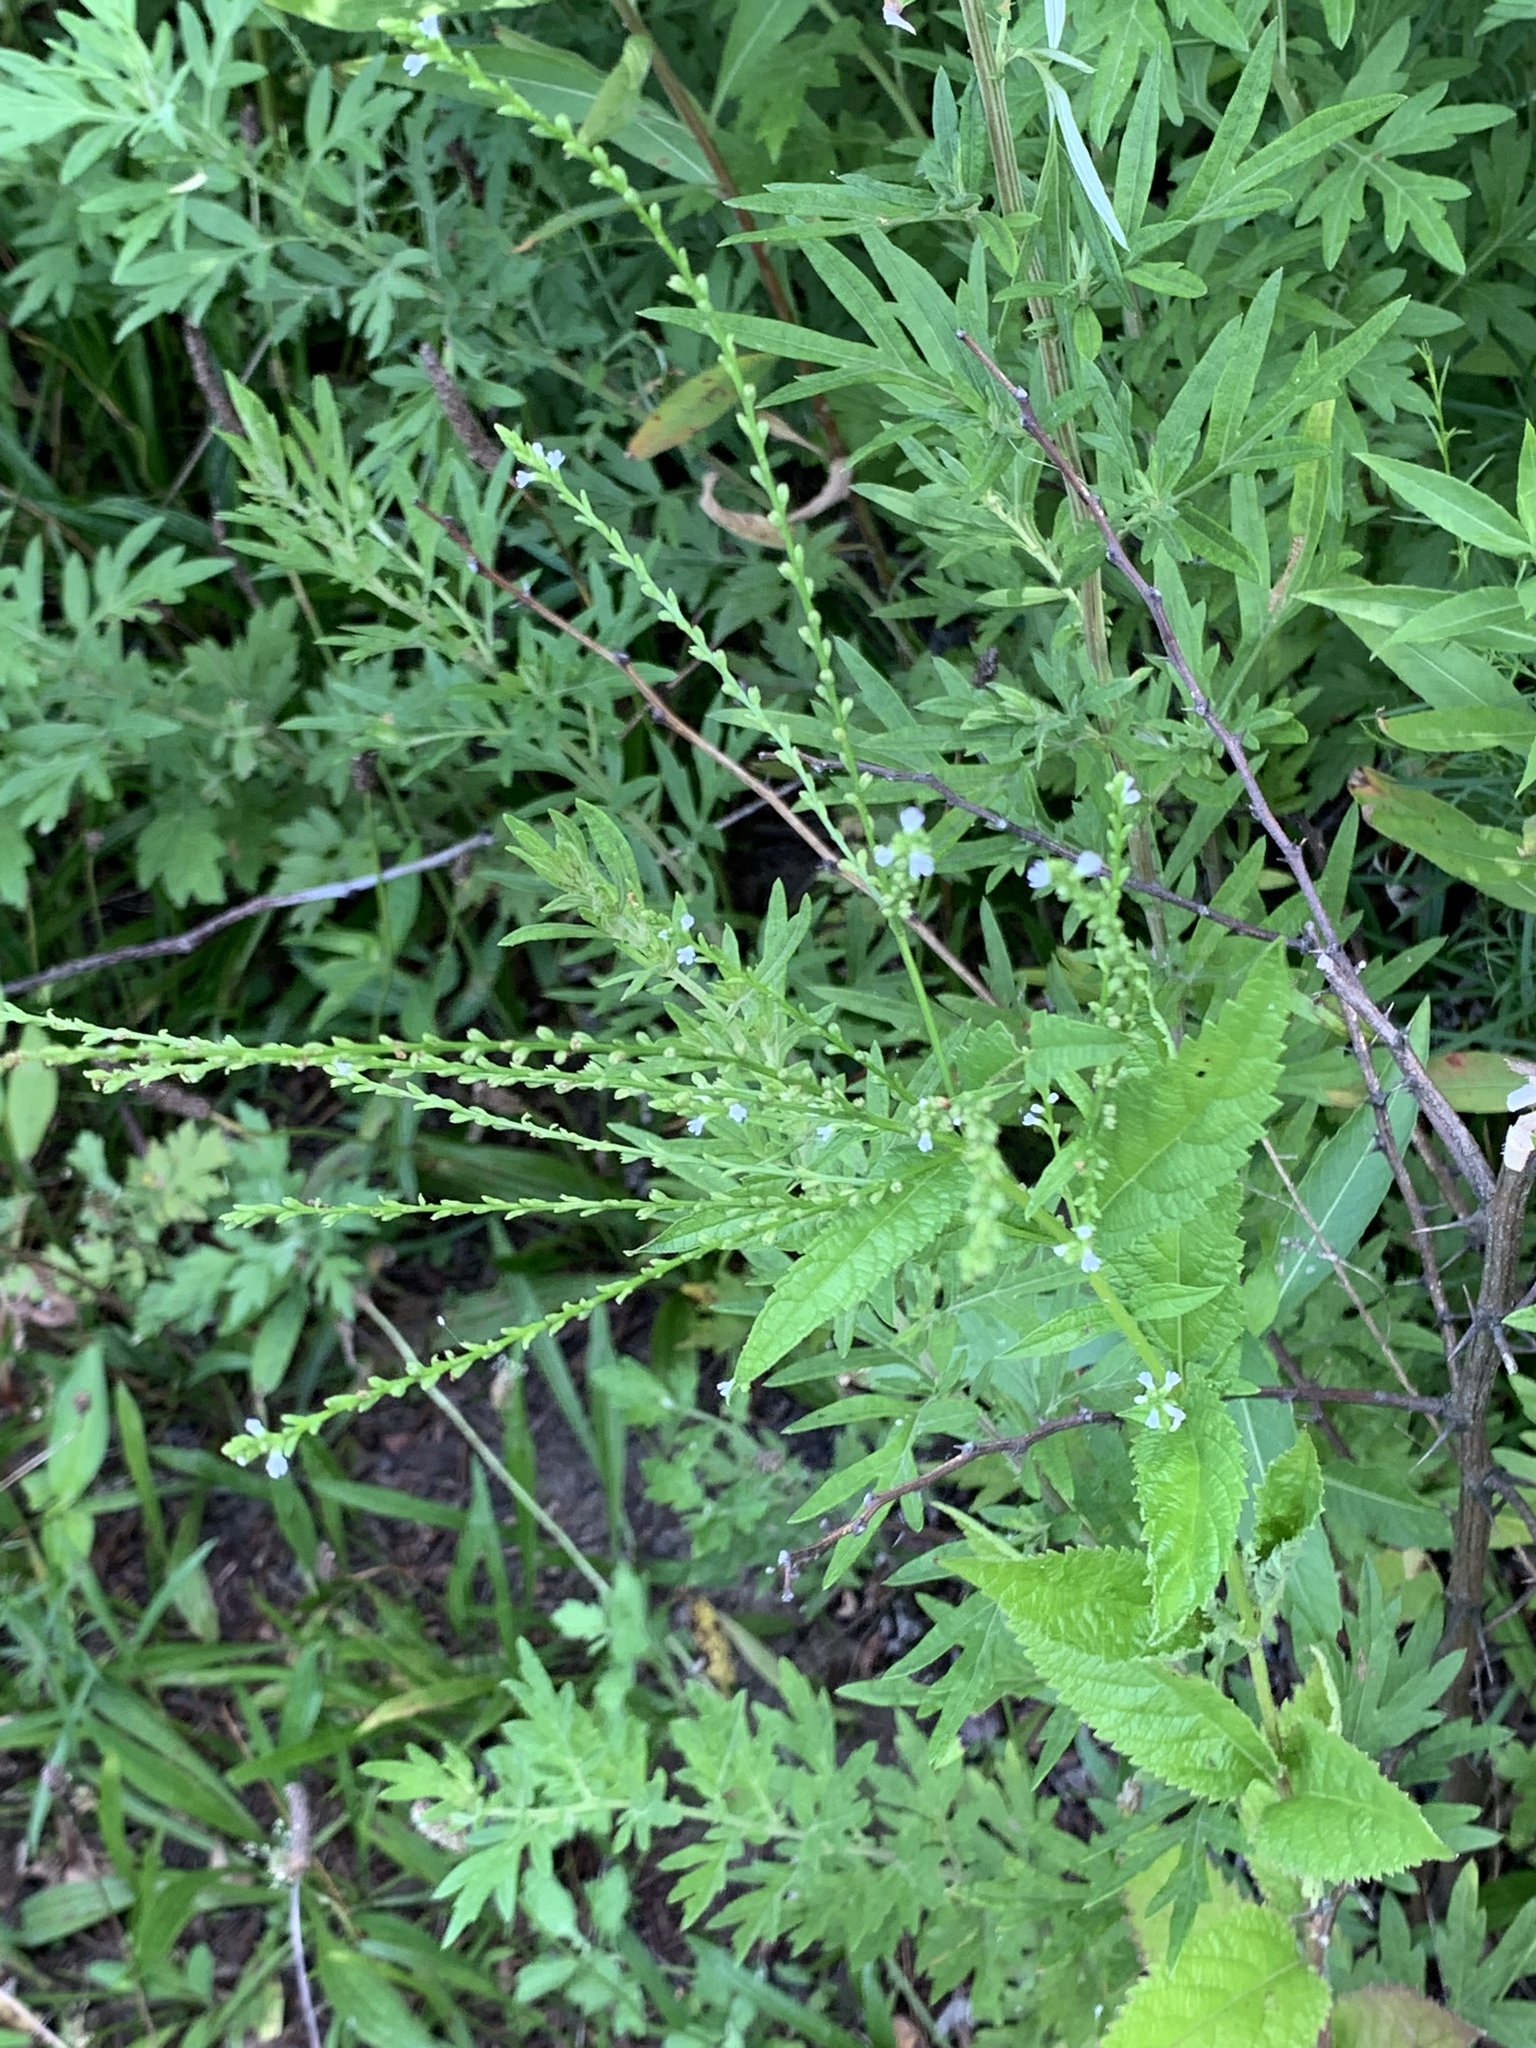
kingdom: Plantae
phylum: Tracheophyta
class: Magnoliopsida
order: Lamiales
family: Verbenaceae
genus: Verbena
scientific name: Verbena urticifolia
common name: Nettle-leaved vervain
